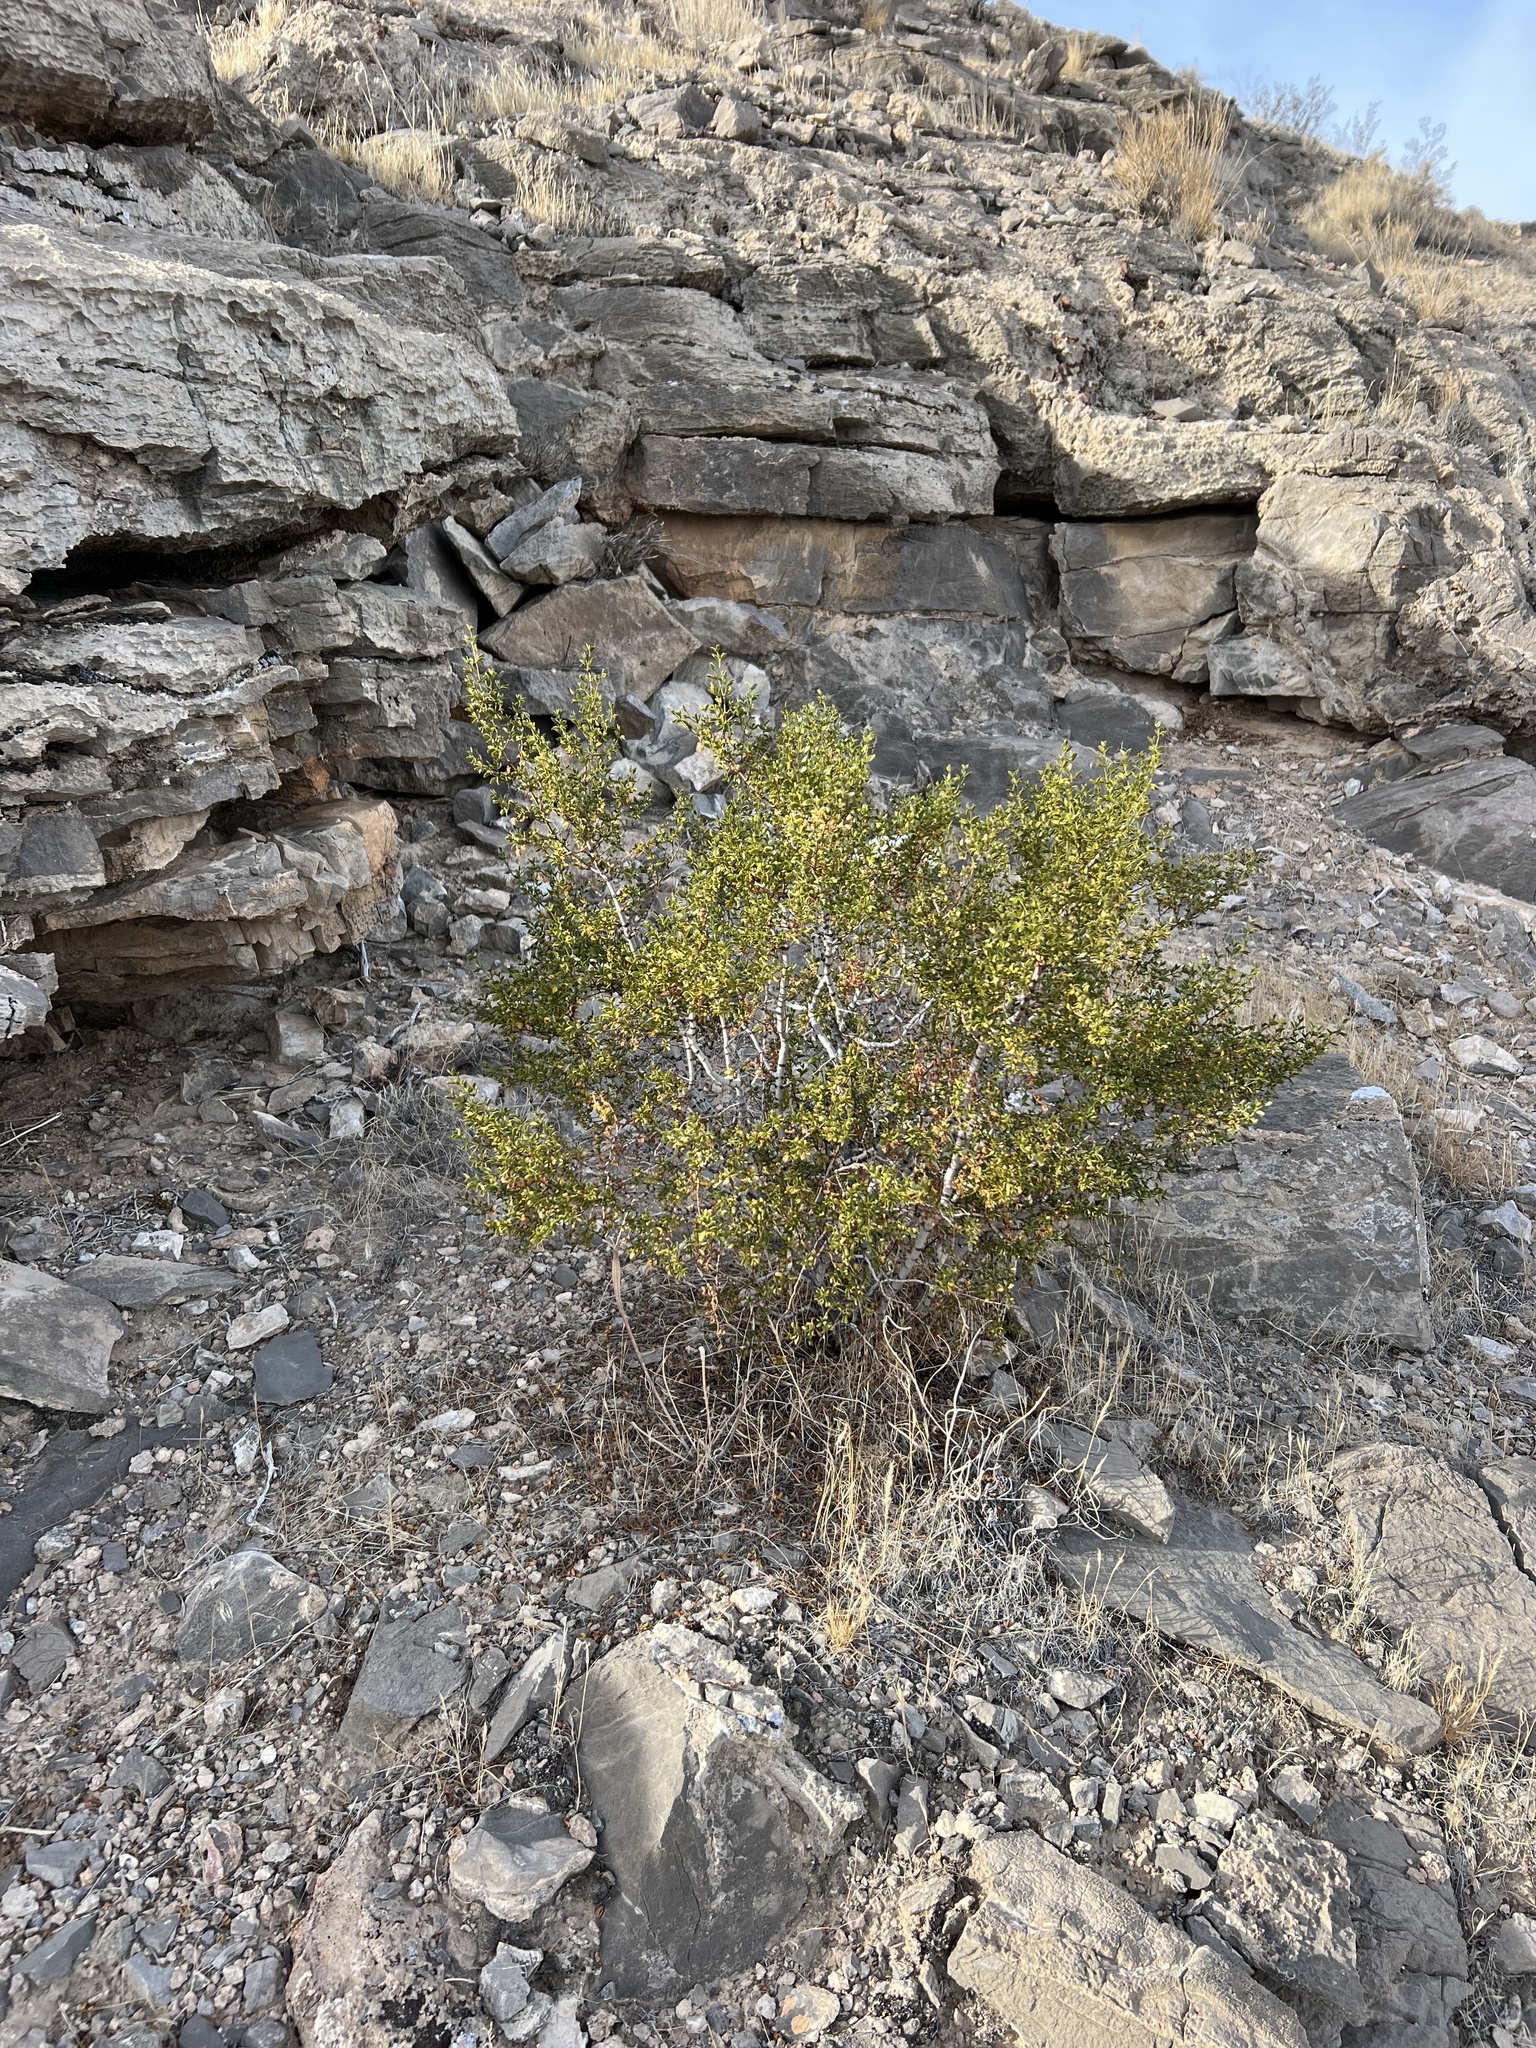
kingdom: Plantae
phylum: Tracheophyta
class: Magnoliopsida
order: Zygophyllales
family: Zygophyllaceae
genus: Larrea
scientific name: Larrea tridentata
